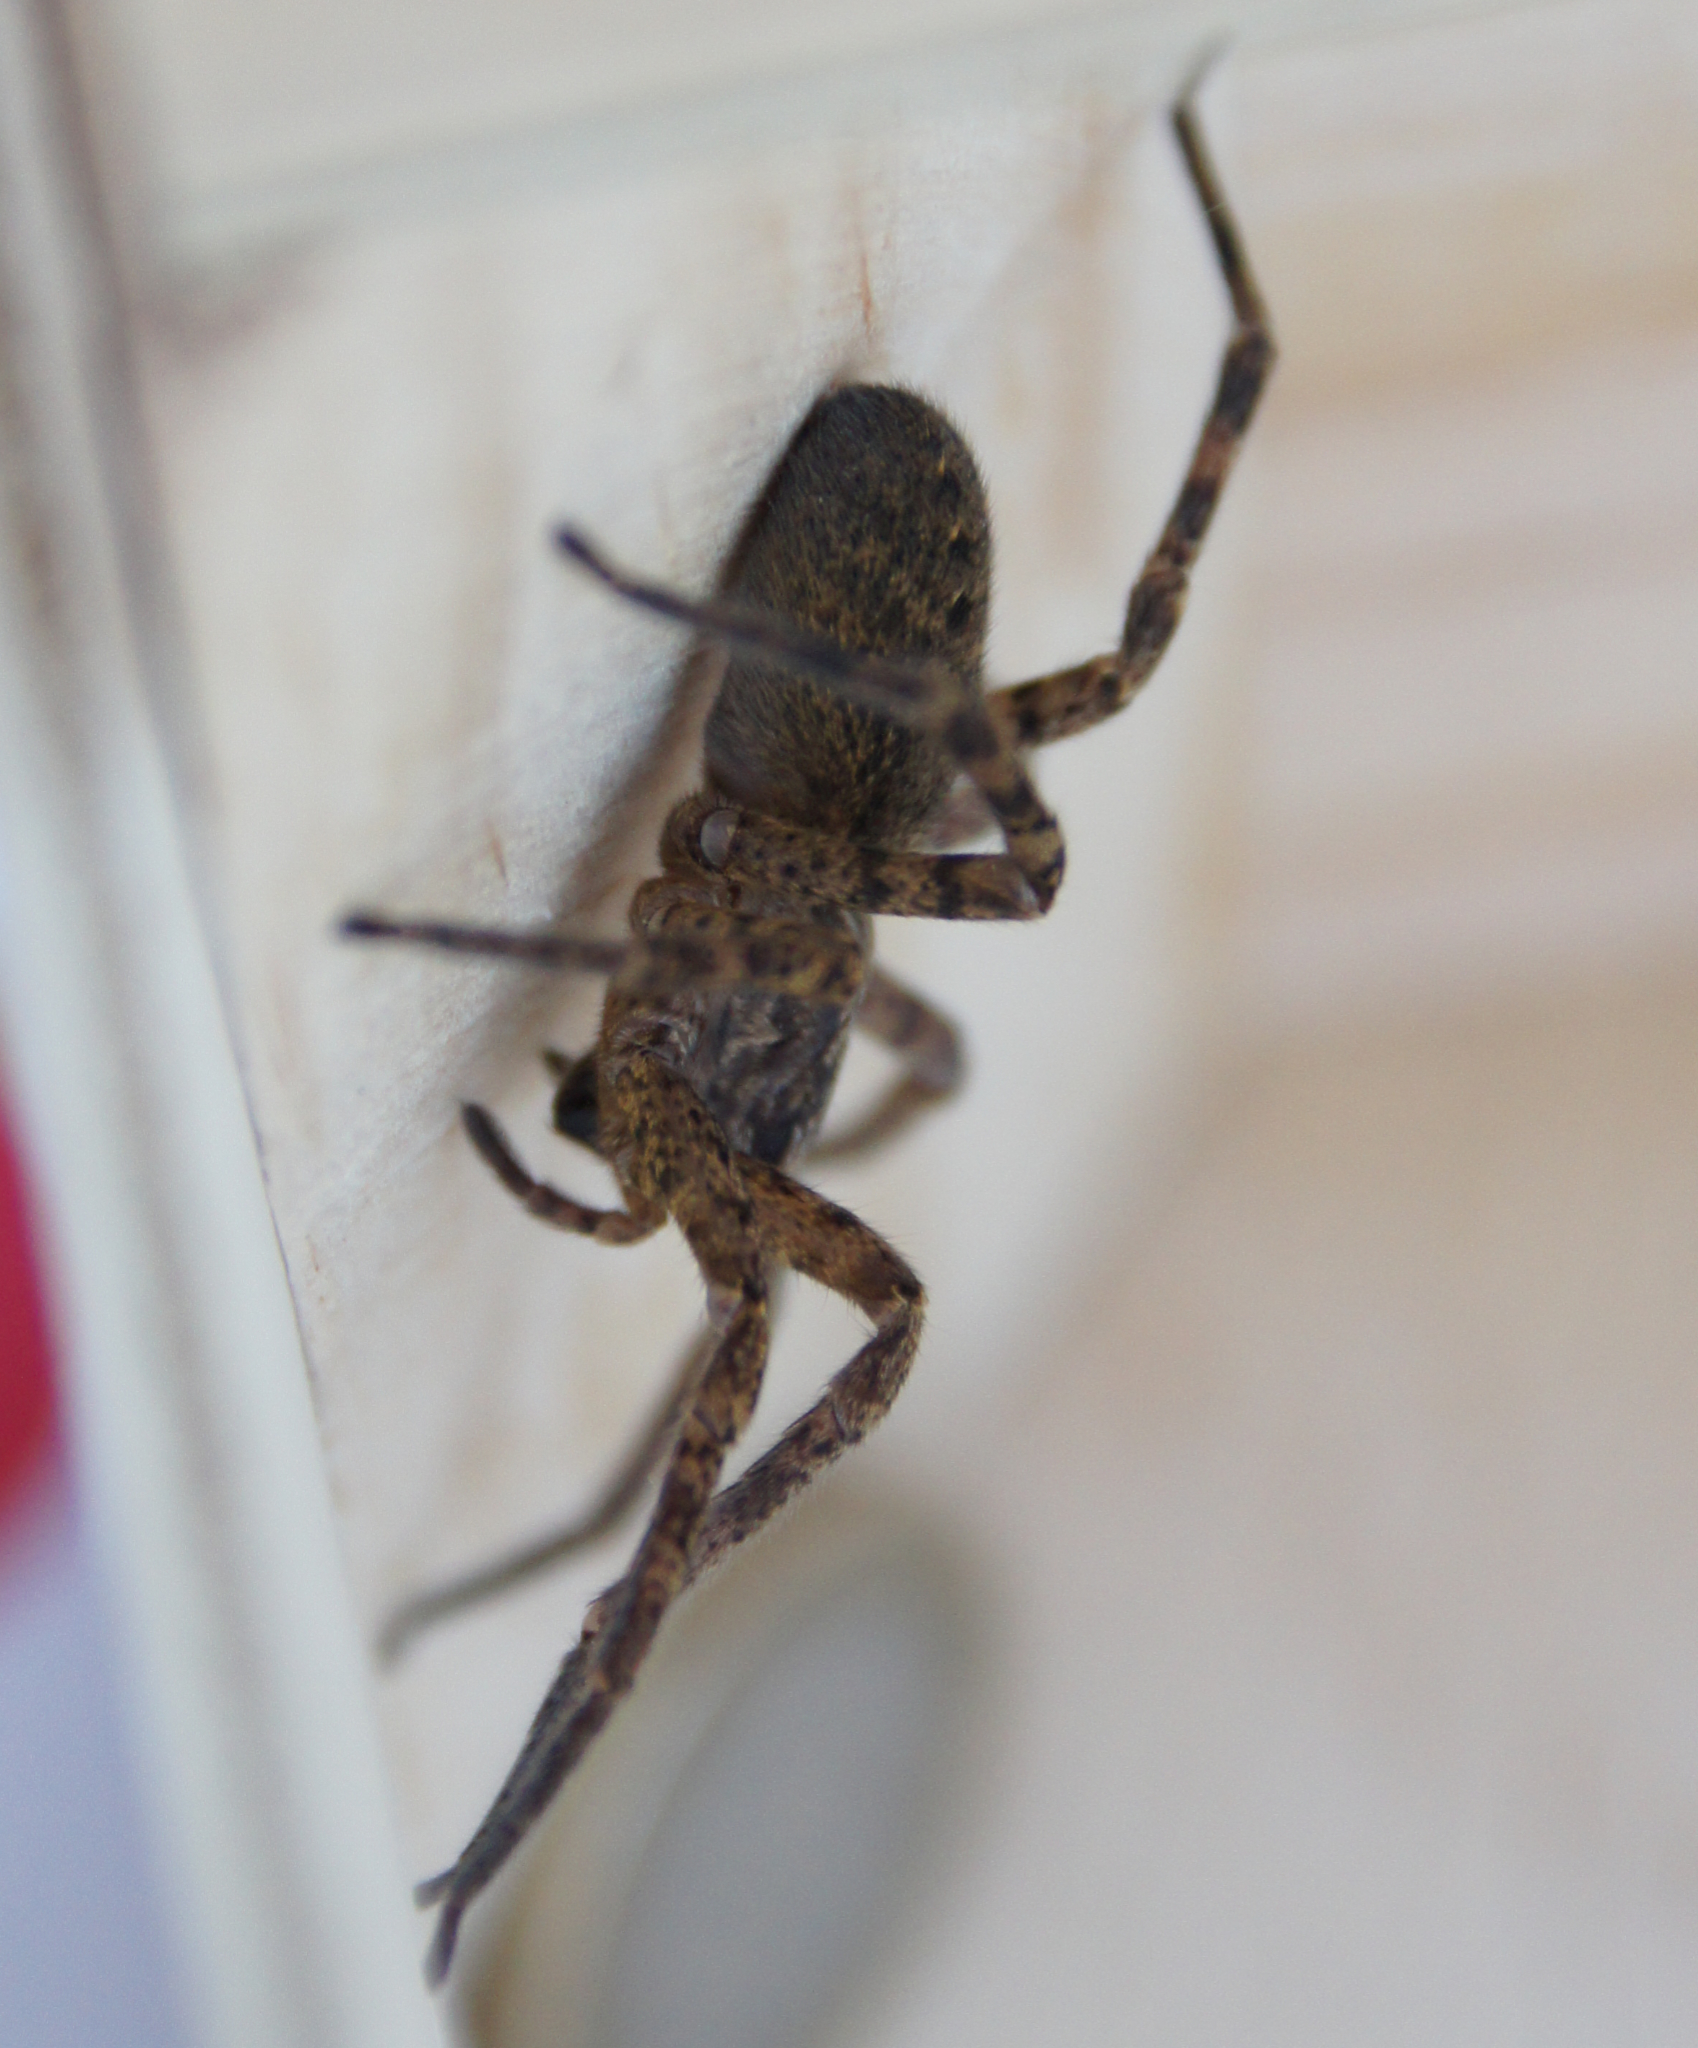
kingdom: Animalia
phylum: Arthropoda
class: Arachnida
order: Araneae
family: Zoropsidae
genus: Zoropsis
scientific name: Zoropsis rufipes
